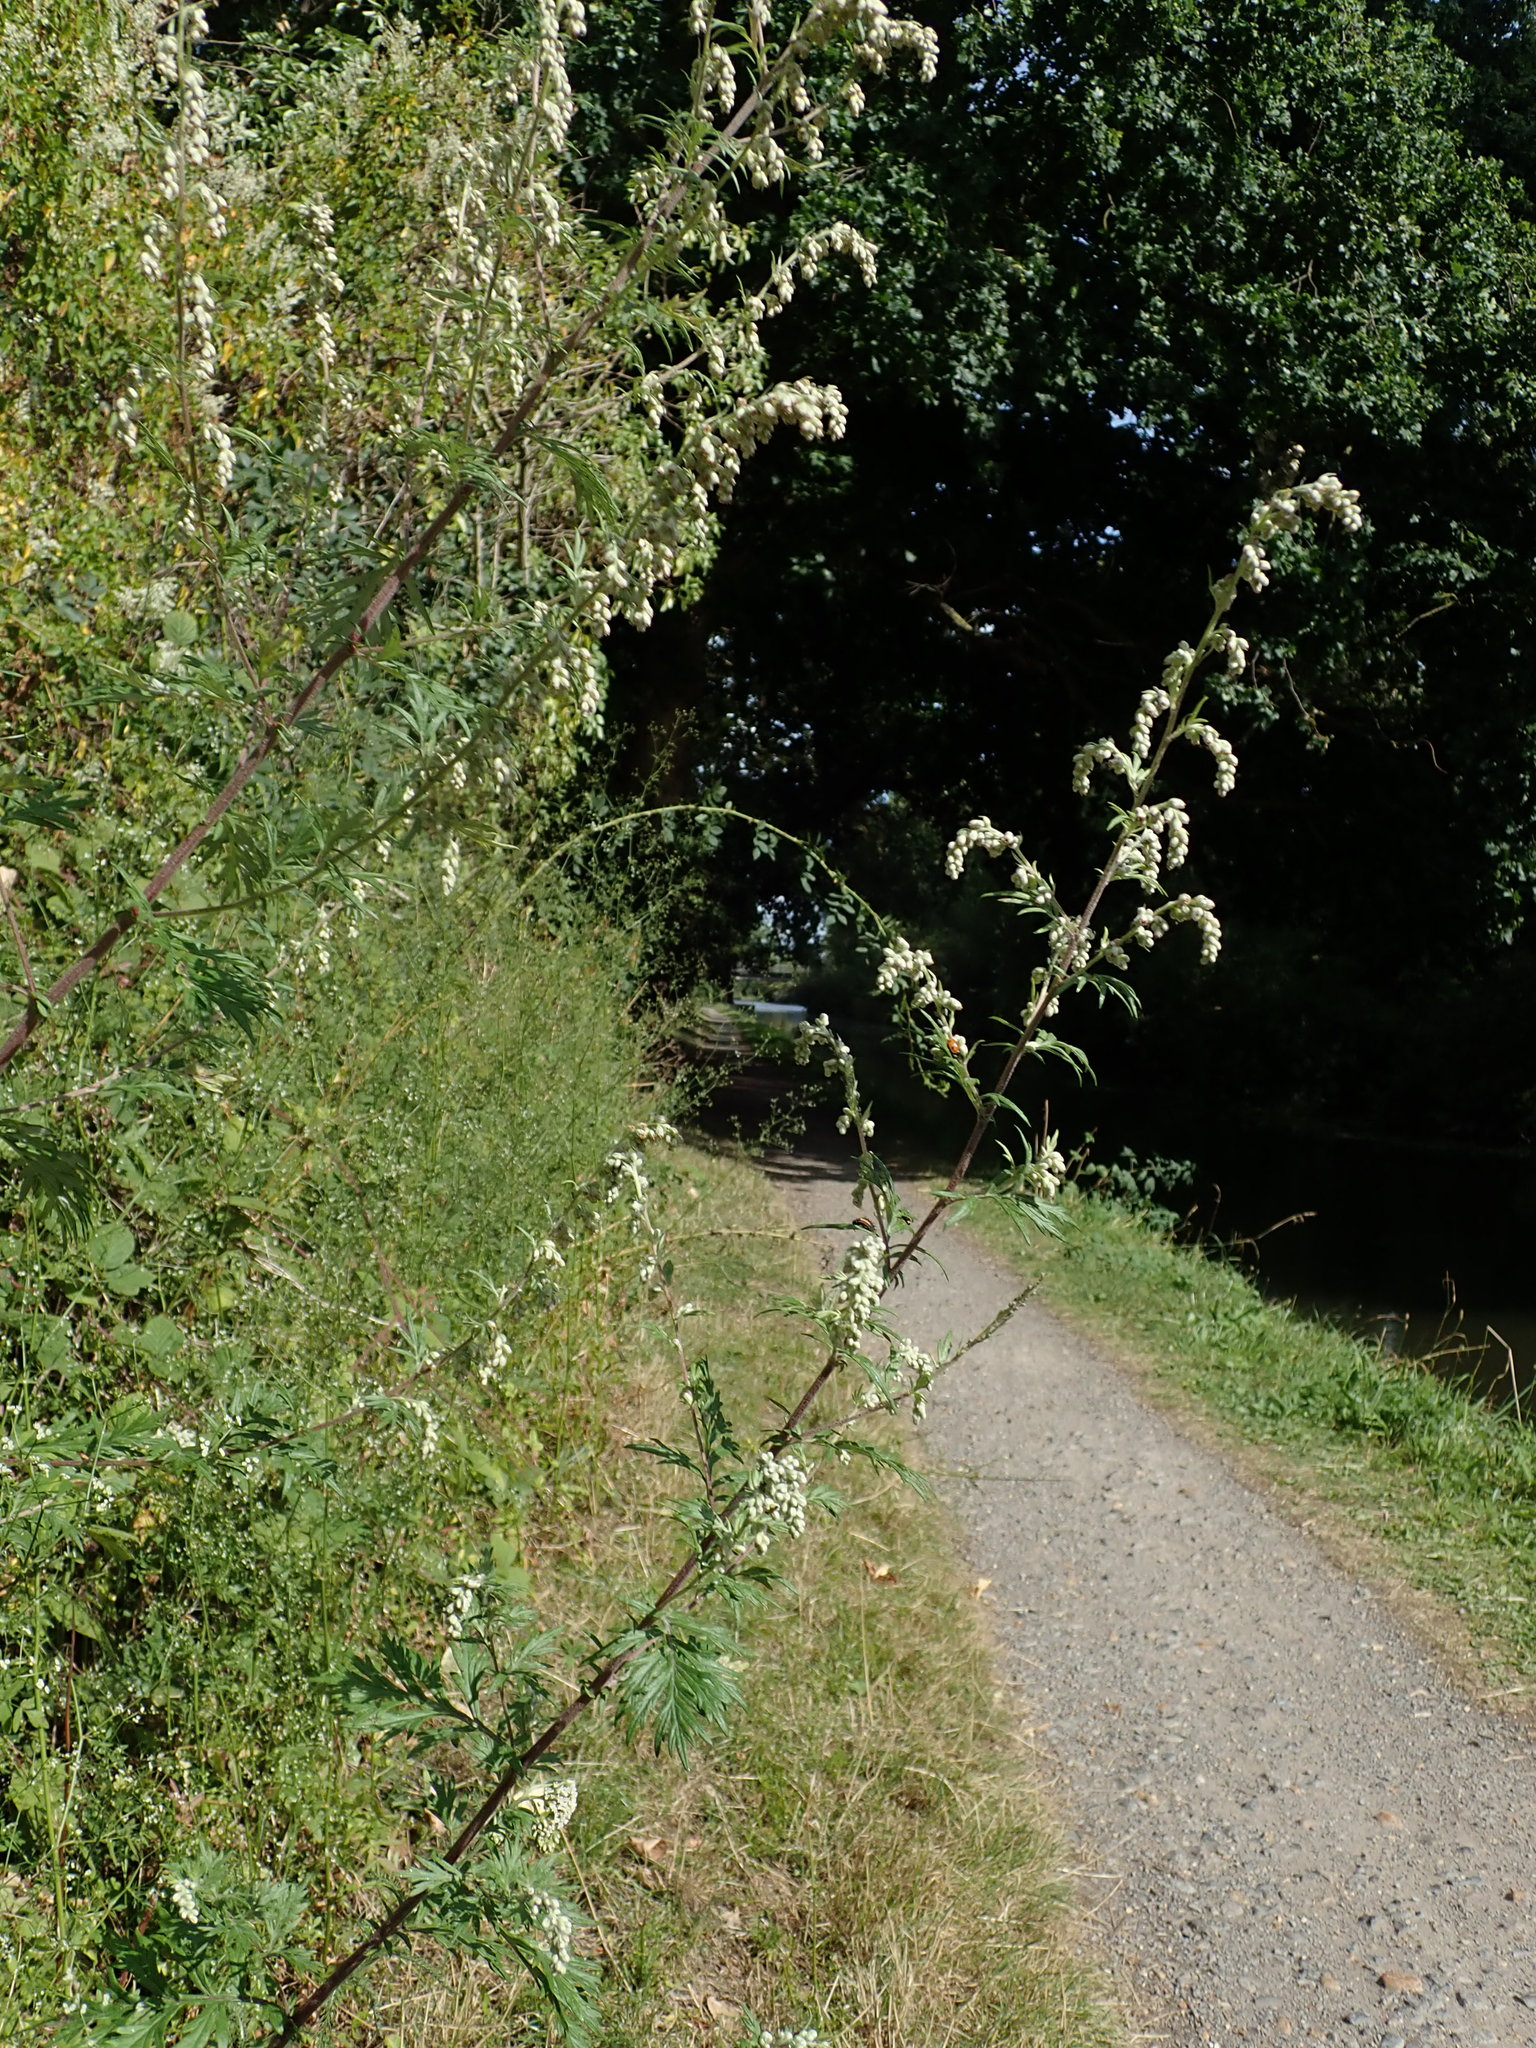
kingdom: Plantae
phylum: Tracheophyta
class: Magnoliopsida
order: Asterales
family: Asteraceae
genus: Artemisia
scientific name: Artemisia vulgaris
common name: Mugwort
